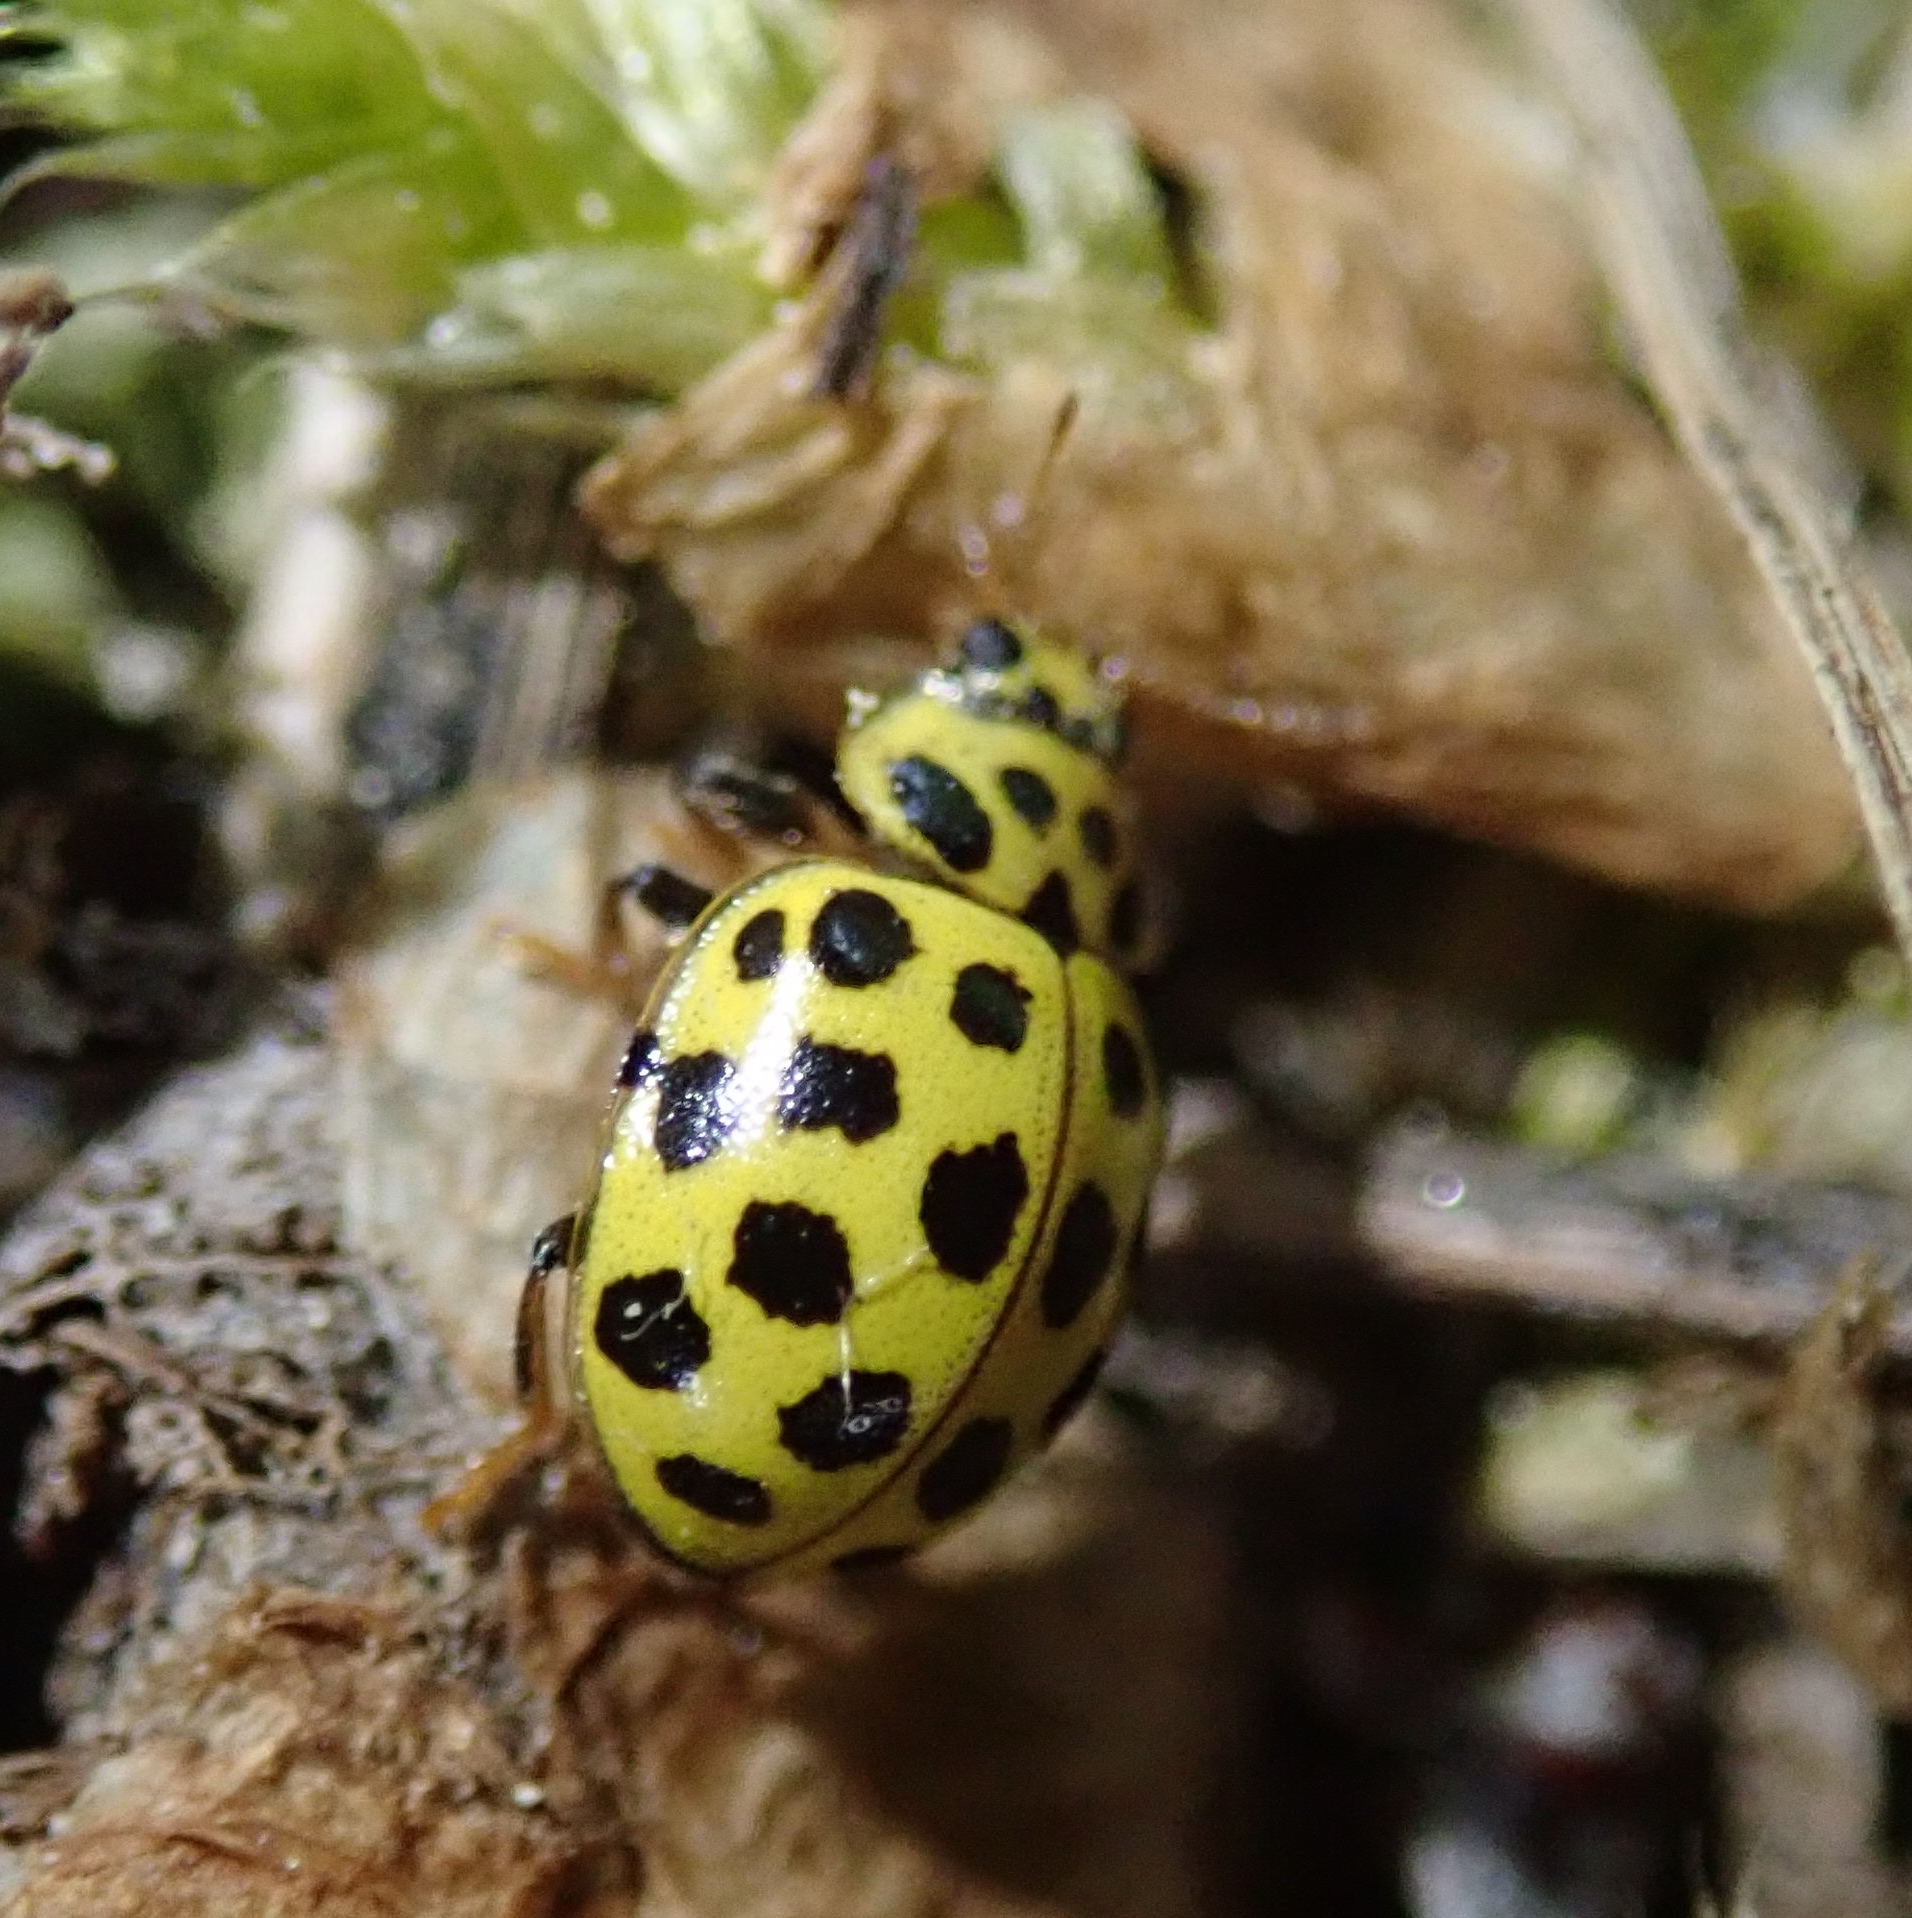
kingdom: Animalia
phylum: Arthropoda
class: Insecta
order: Coleoptera
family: Coccinellidae
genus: Psyllobora
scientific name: Psyllobora vigintiduopunctata
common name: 22-spot ladybird
